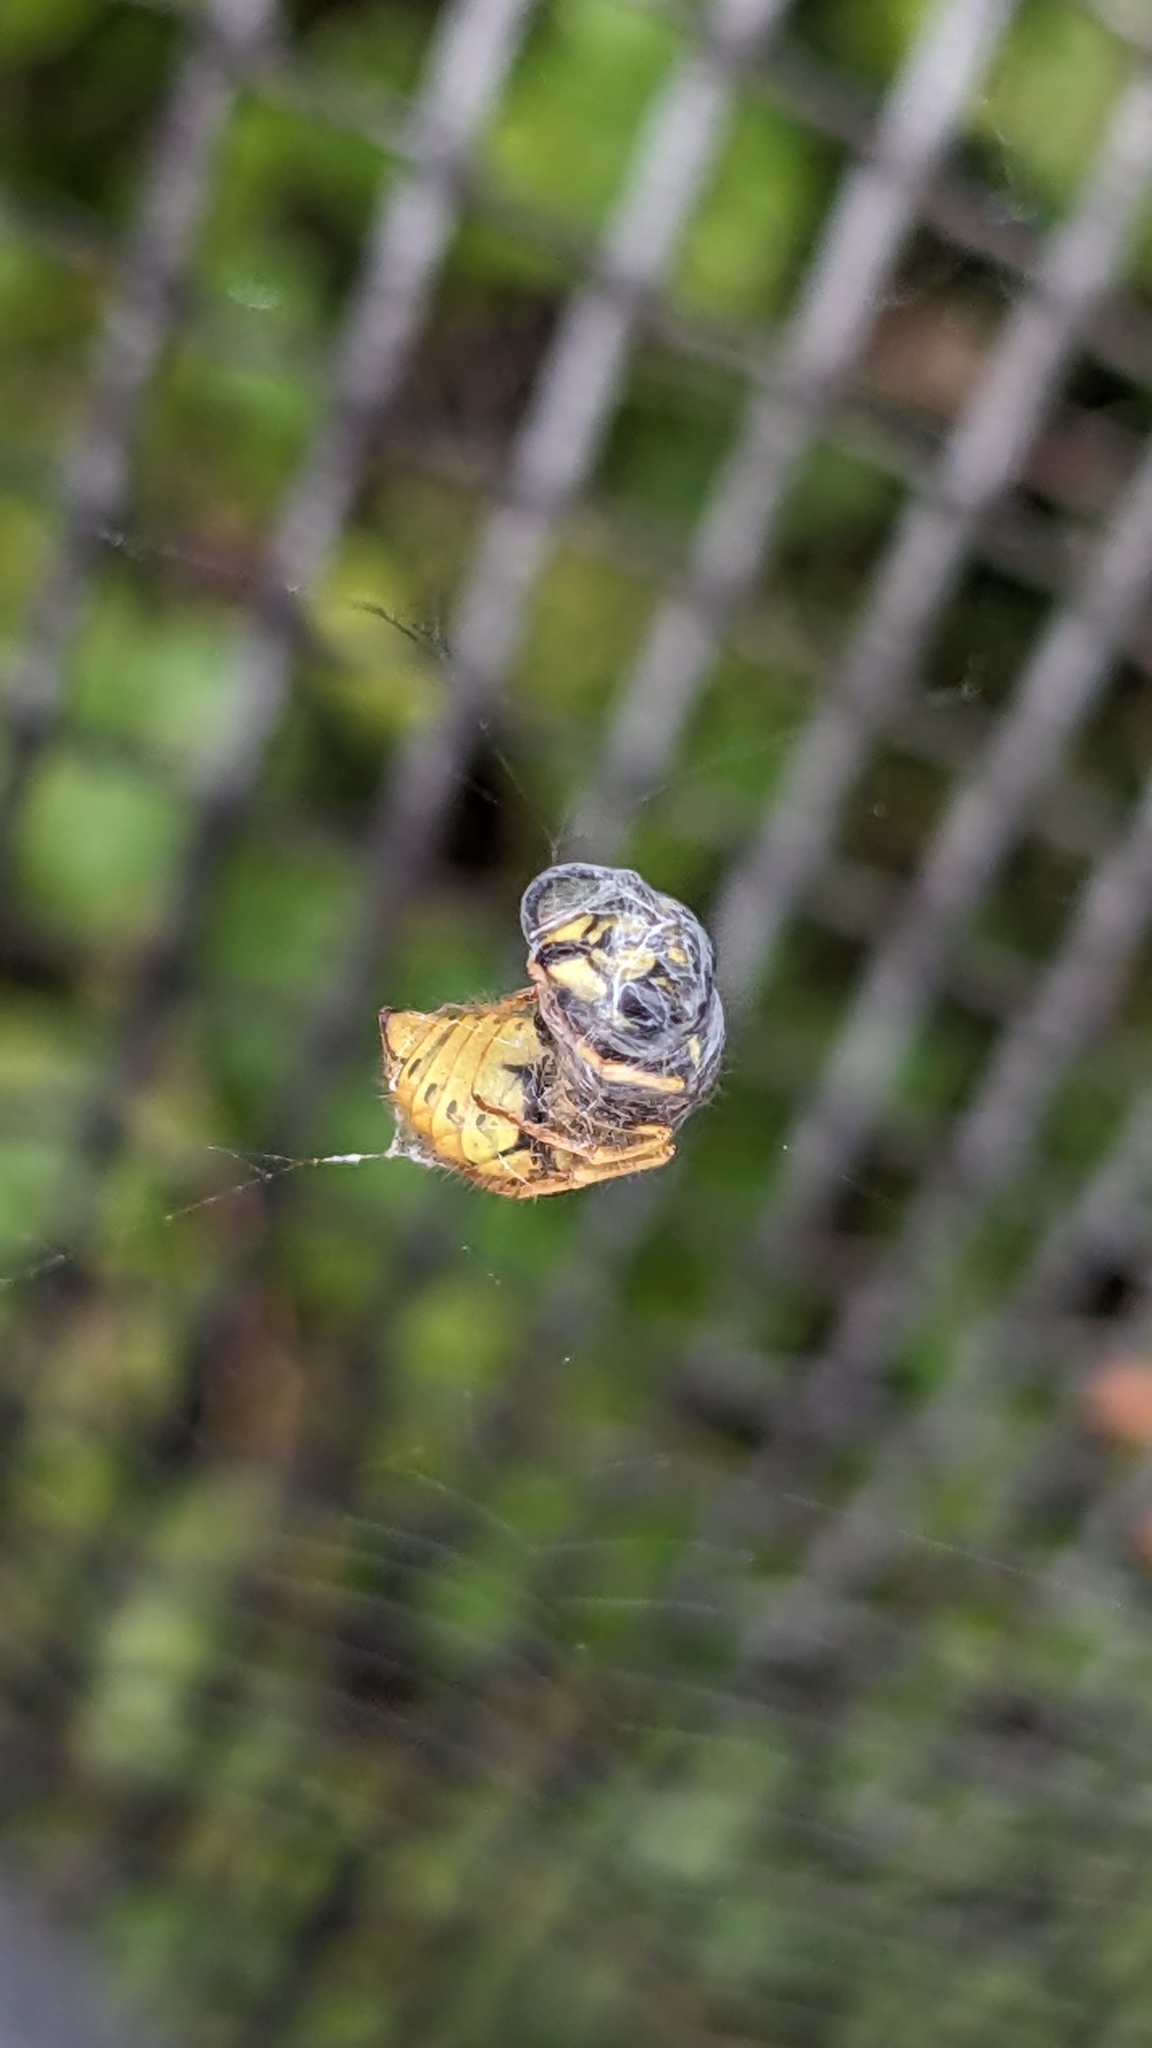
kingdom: Animalia
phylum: Arthropoda
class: Insecta
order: Hymenoptera
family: Vespidae
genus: Vespula
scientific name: Vespula vulgaris
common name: Common wasp
